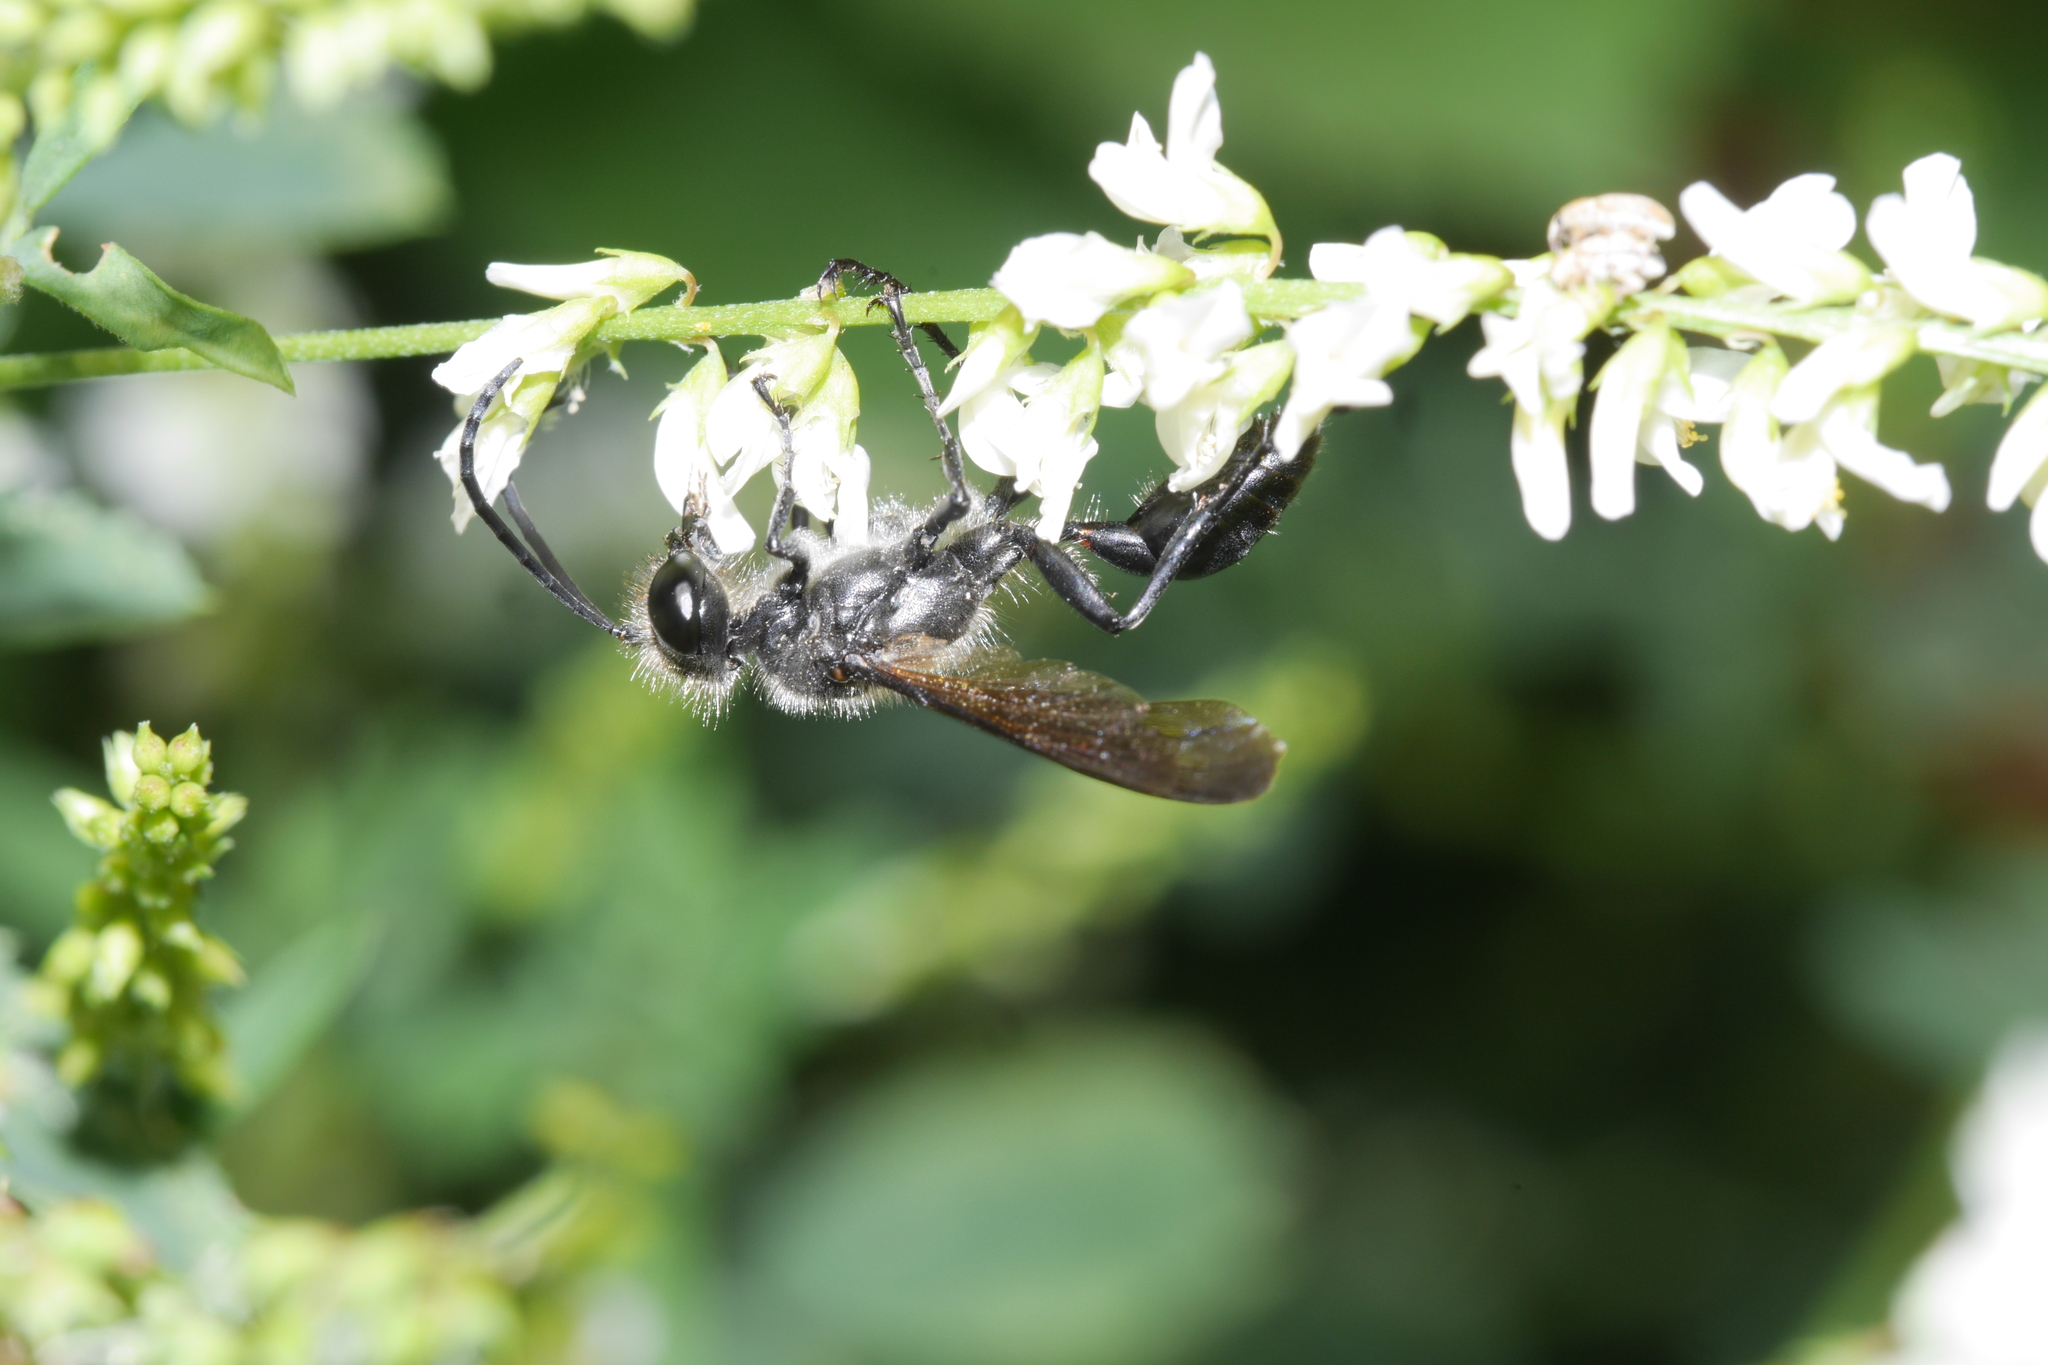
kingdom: Animalia
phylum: Arthropoda
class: Insecta
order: Hymenoptera
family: Sphecidae
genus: Isodontia
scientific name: Isodontia mexicana
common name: Mud dauber
